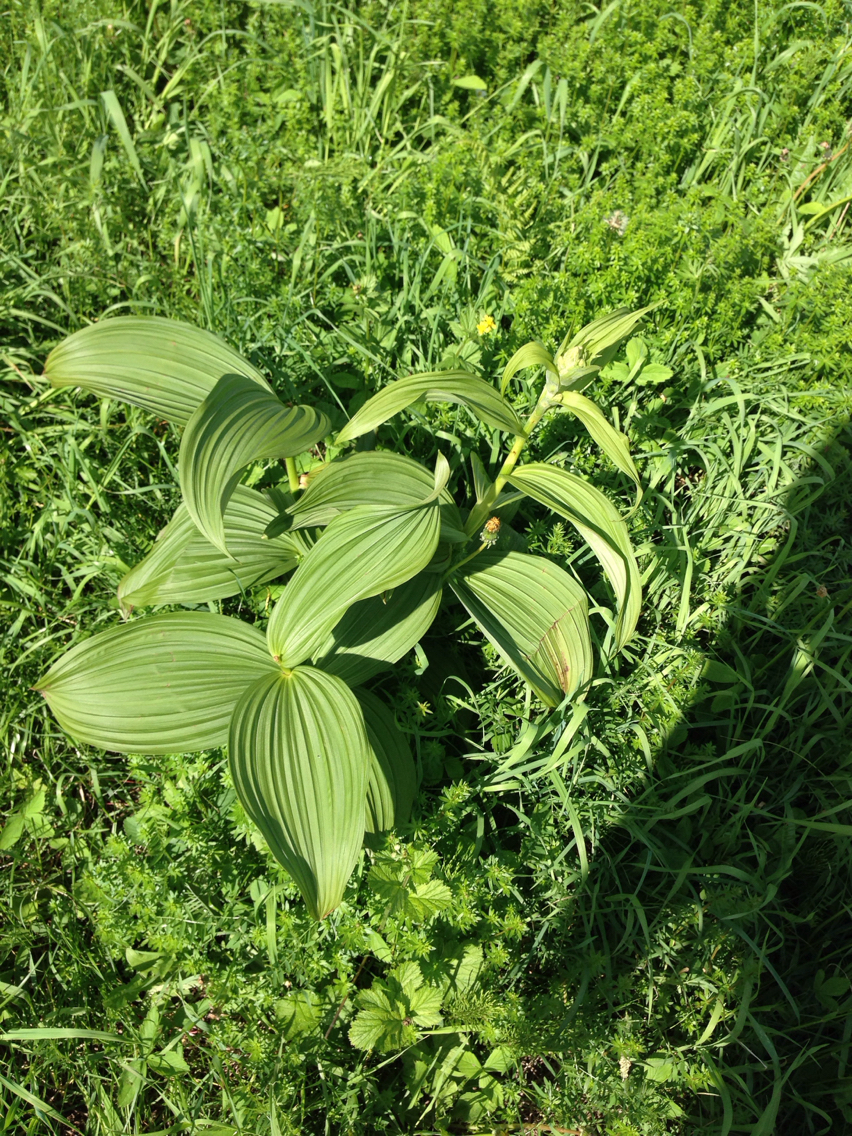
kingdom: Plantae
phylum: Tracheophyta
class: Liliopsida
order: Liliales
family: Melanthiaceae
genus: Veratrum
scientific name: Veratrum viride
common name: American false hellebore
